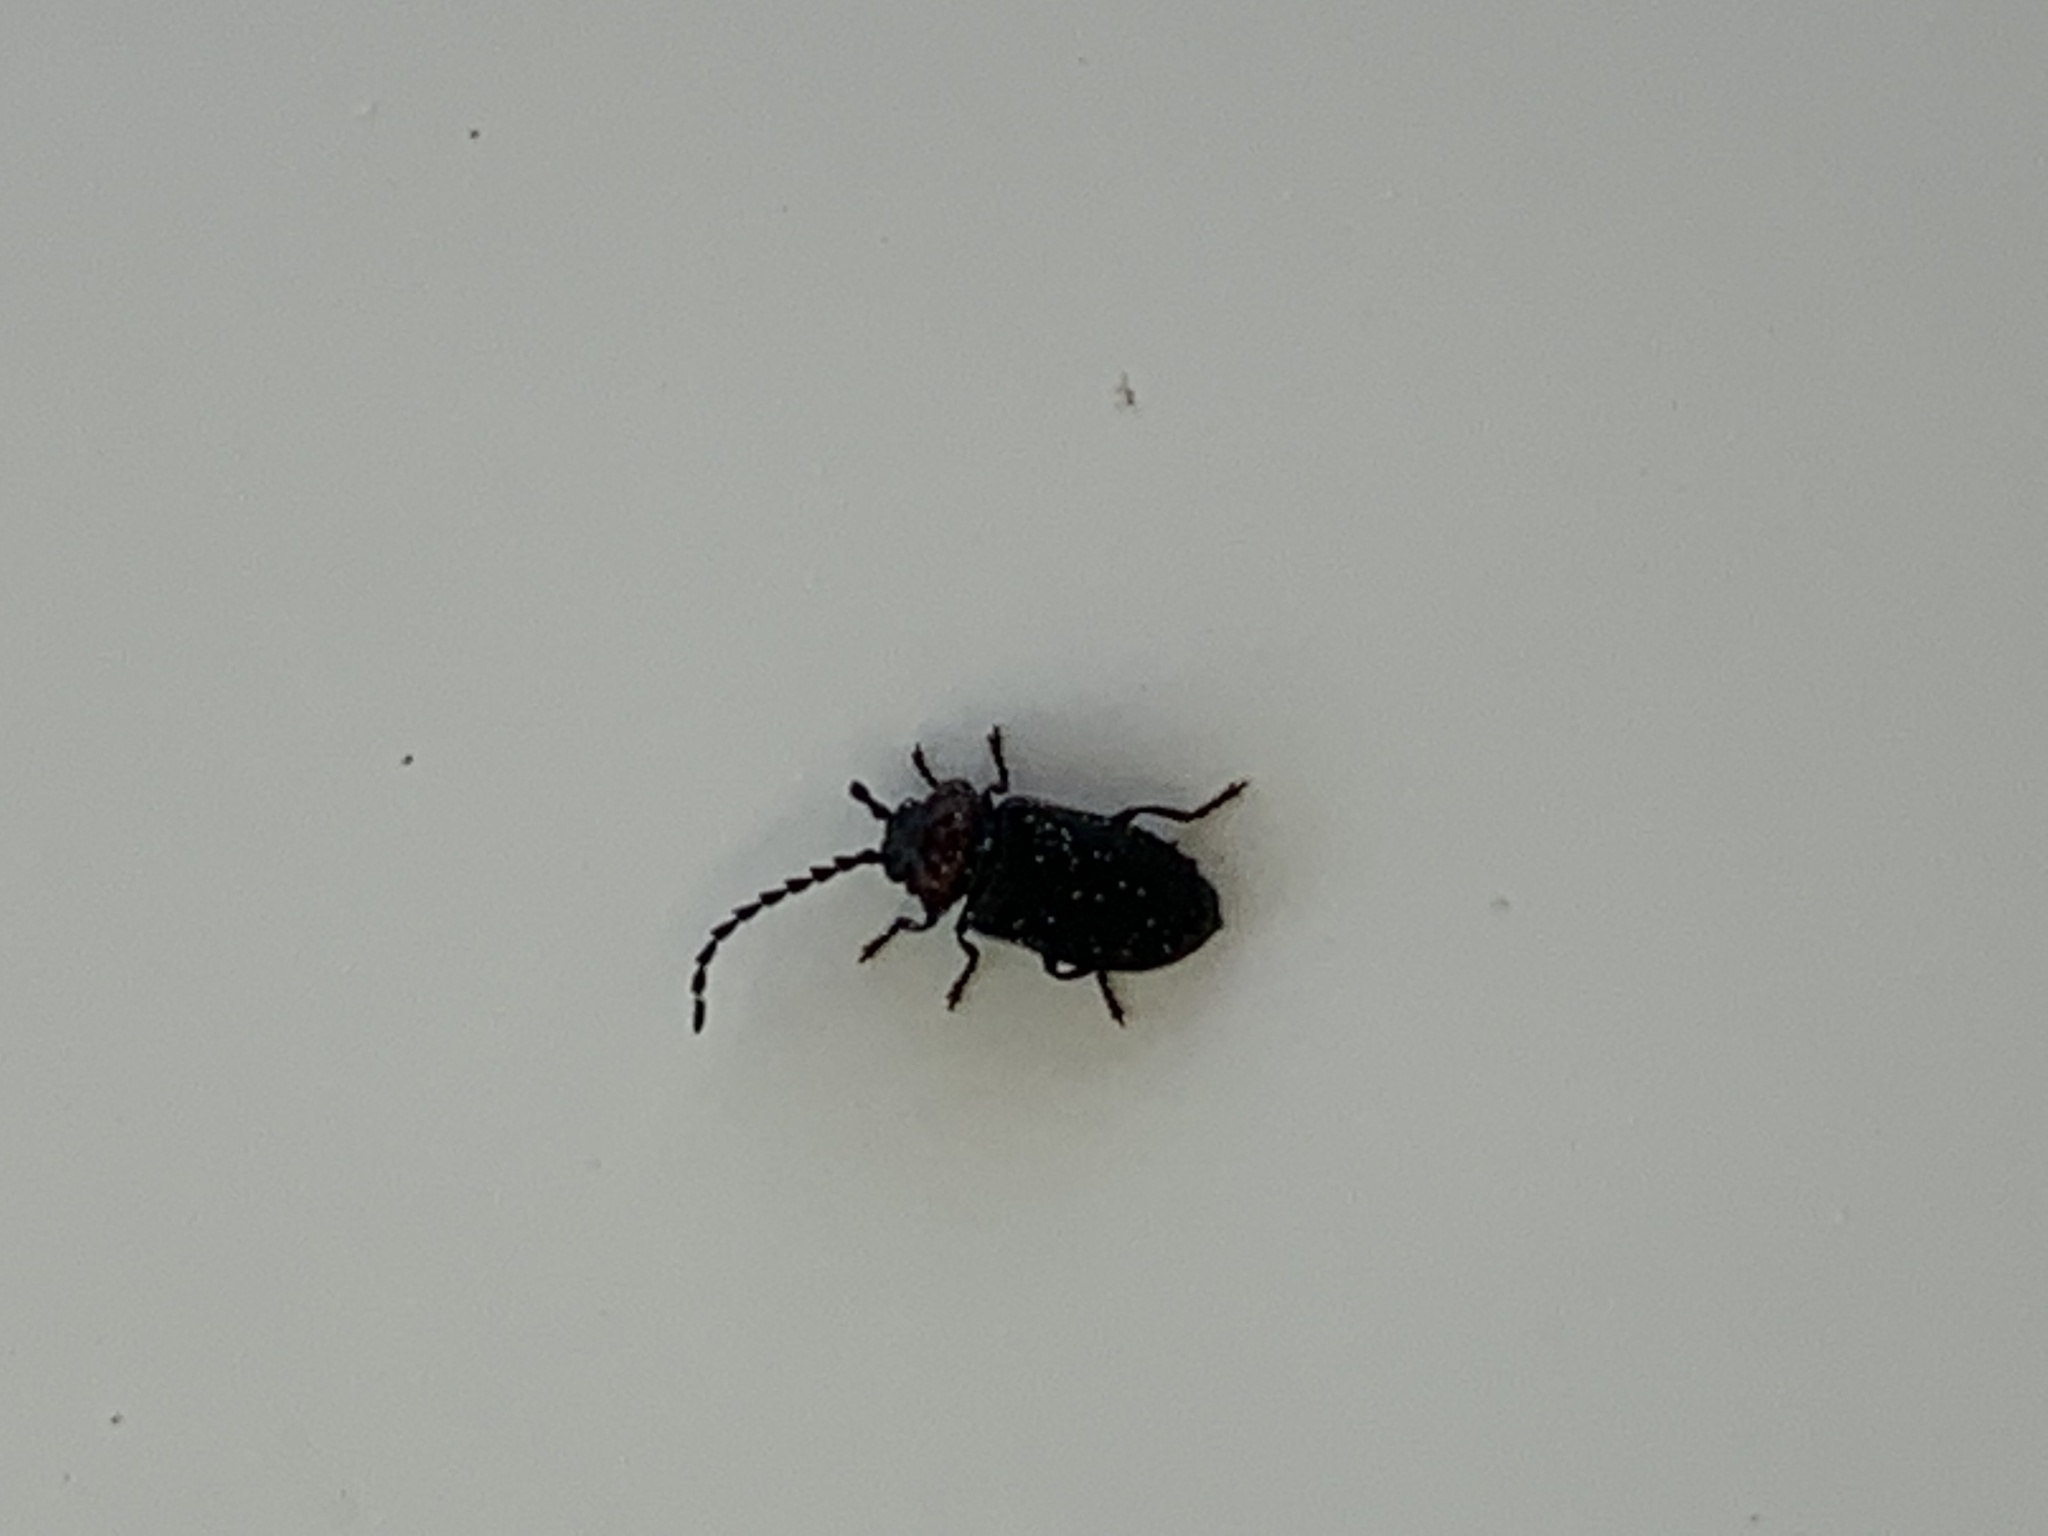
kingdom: Animalia
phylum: Arthropoda
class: Insecta
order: Coleoptera
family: Cantharidae
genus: Ditemnus
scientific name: Ditemnus bidentatus
